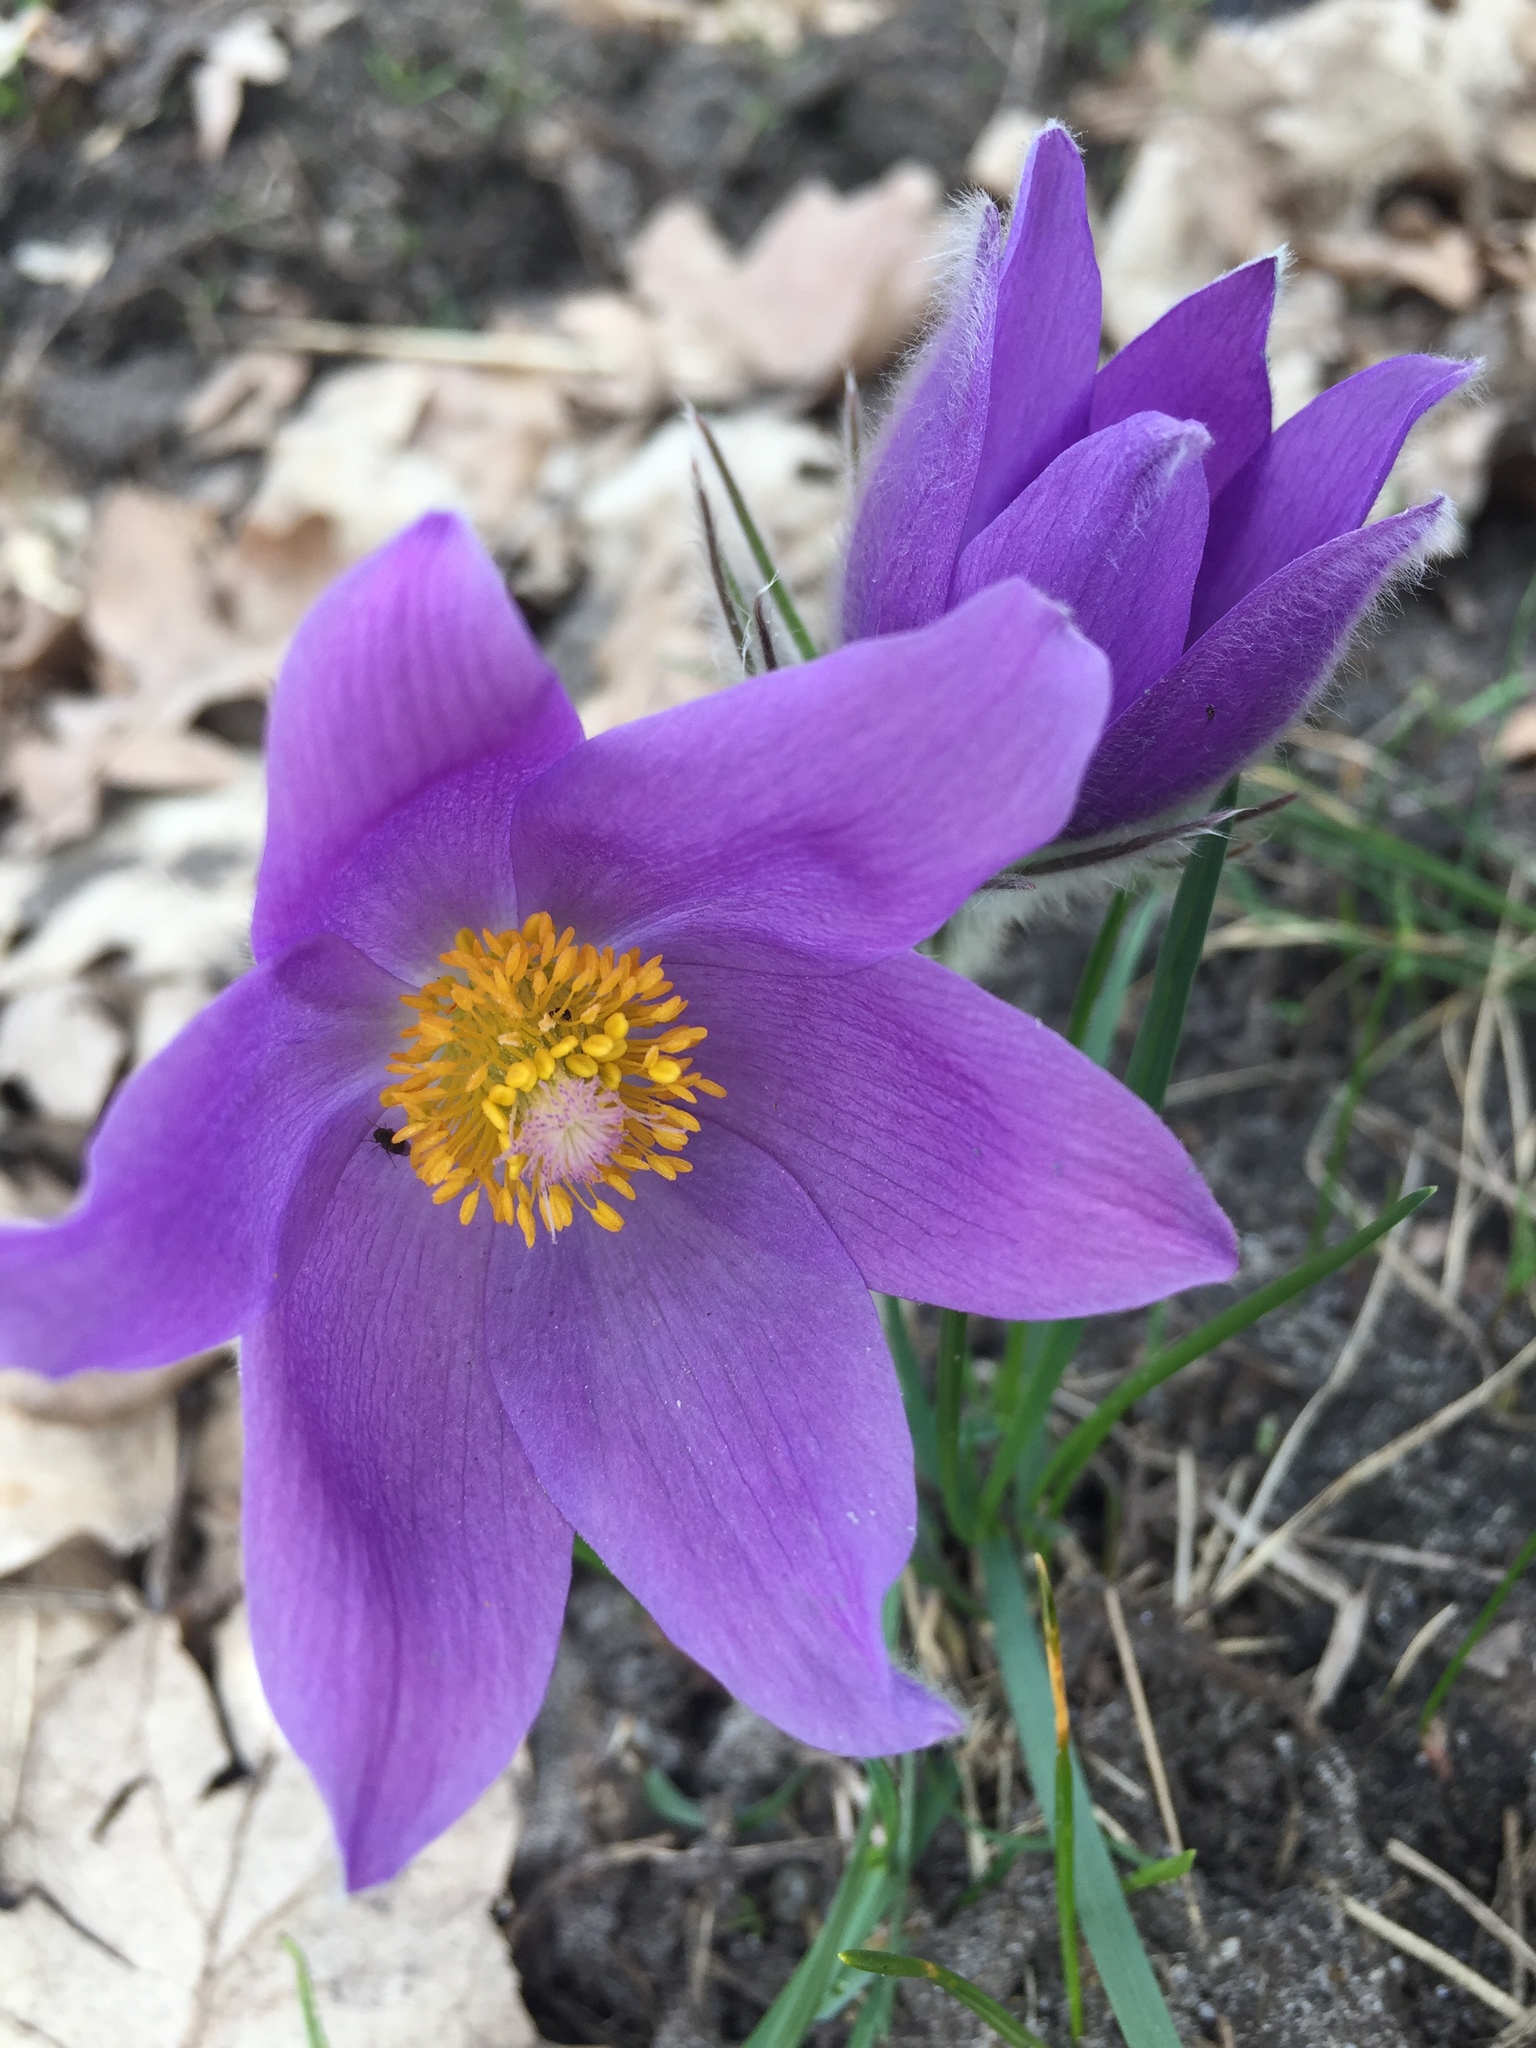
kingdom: Plantae
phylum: Tracheophyta
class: Magnoliopsida
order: Ranunculales
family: Ranunculaceae
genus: Pulsatilla
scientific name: Pulsatilla patens
